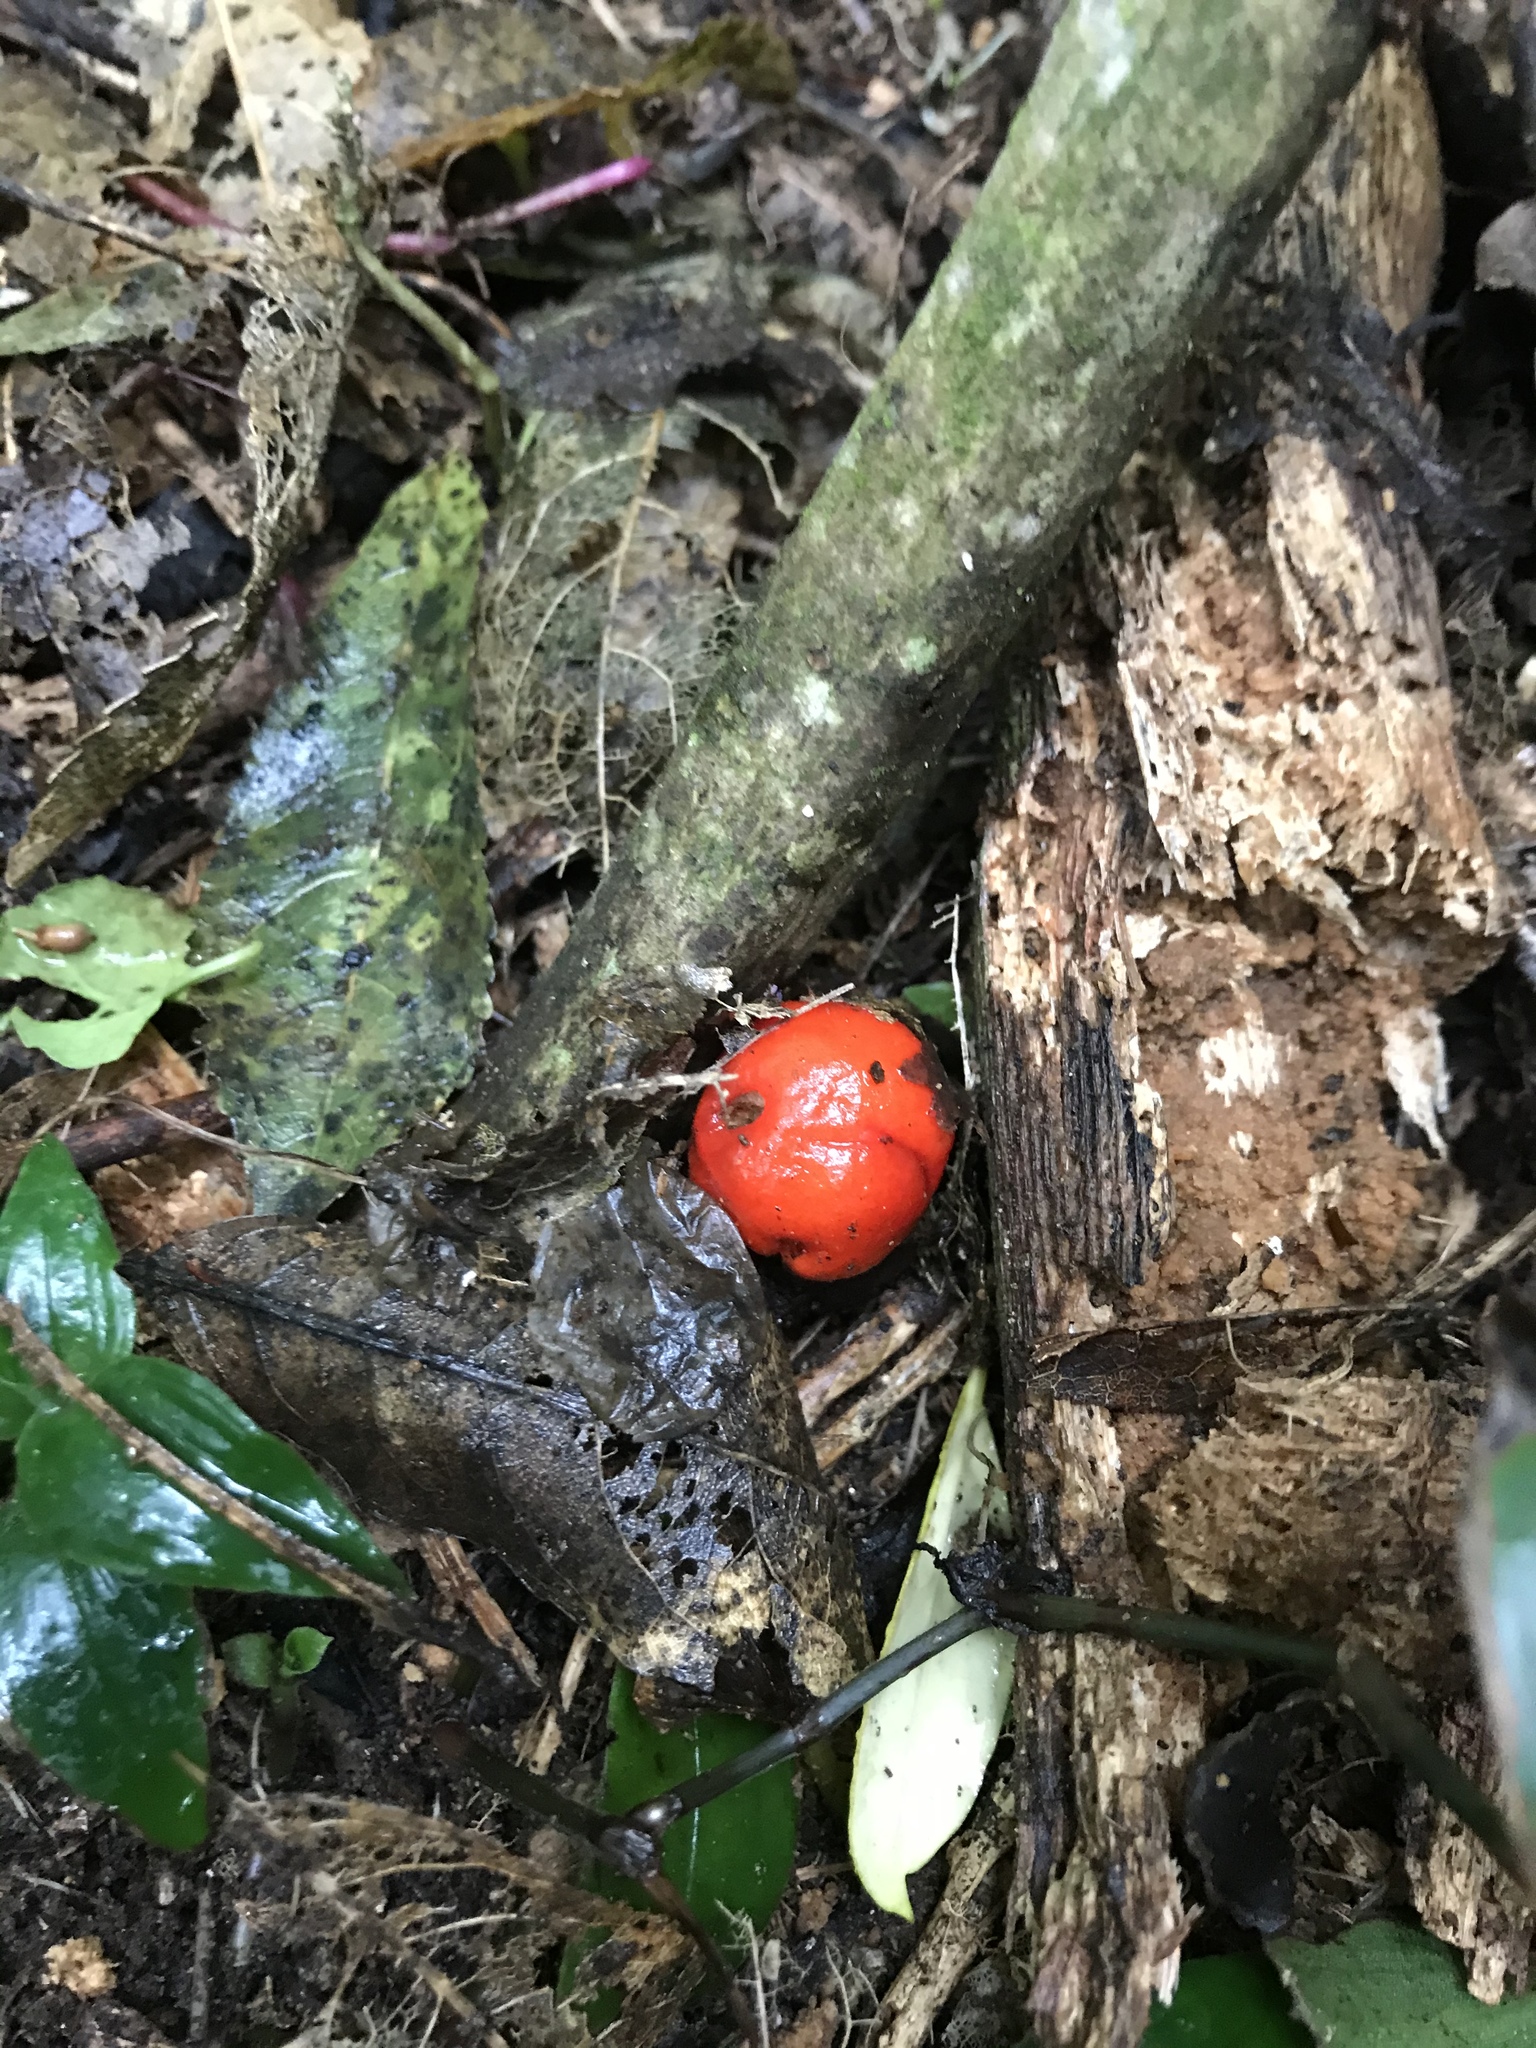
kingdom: Fungi
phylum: Basidiomycota
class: Agaricomycetes
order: Agaricales
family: Strophariaceae
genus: Leratiomyces
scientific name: Leratiomyces erythrocephalus
